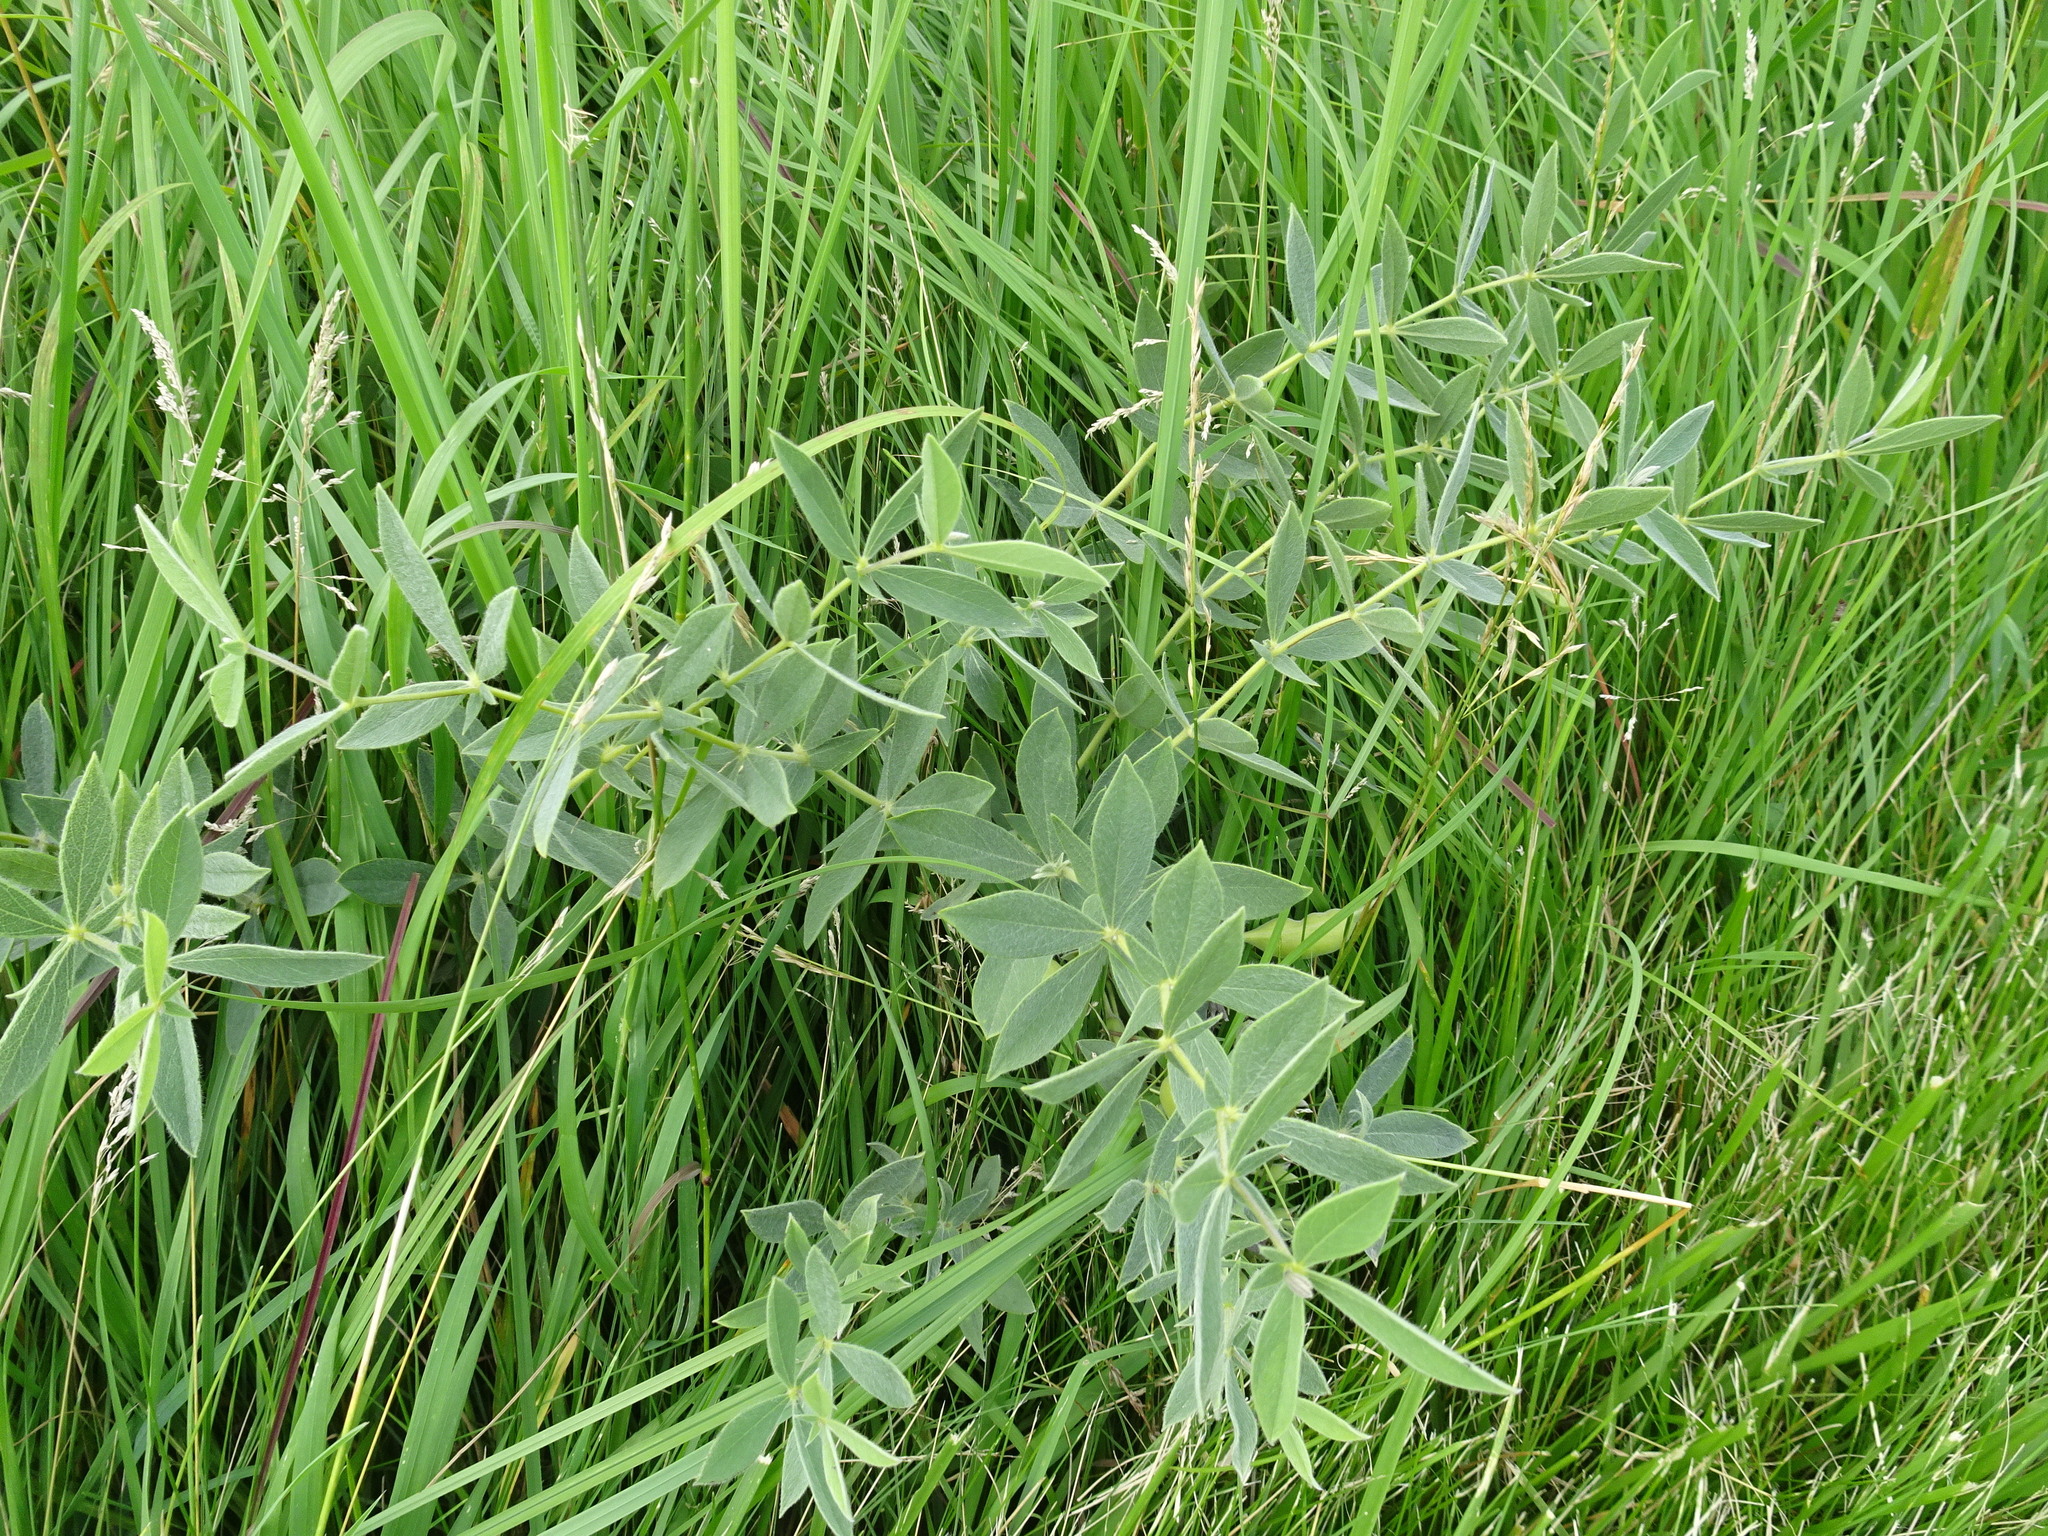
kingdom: Plantae
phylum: Tracheophyta
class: Magnoliopsida
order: Fabales
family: Fabaceae
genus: Baptisia
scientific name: Baptisia bracteata
